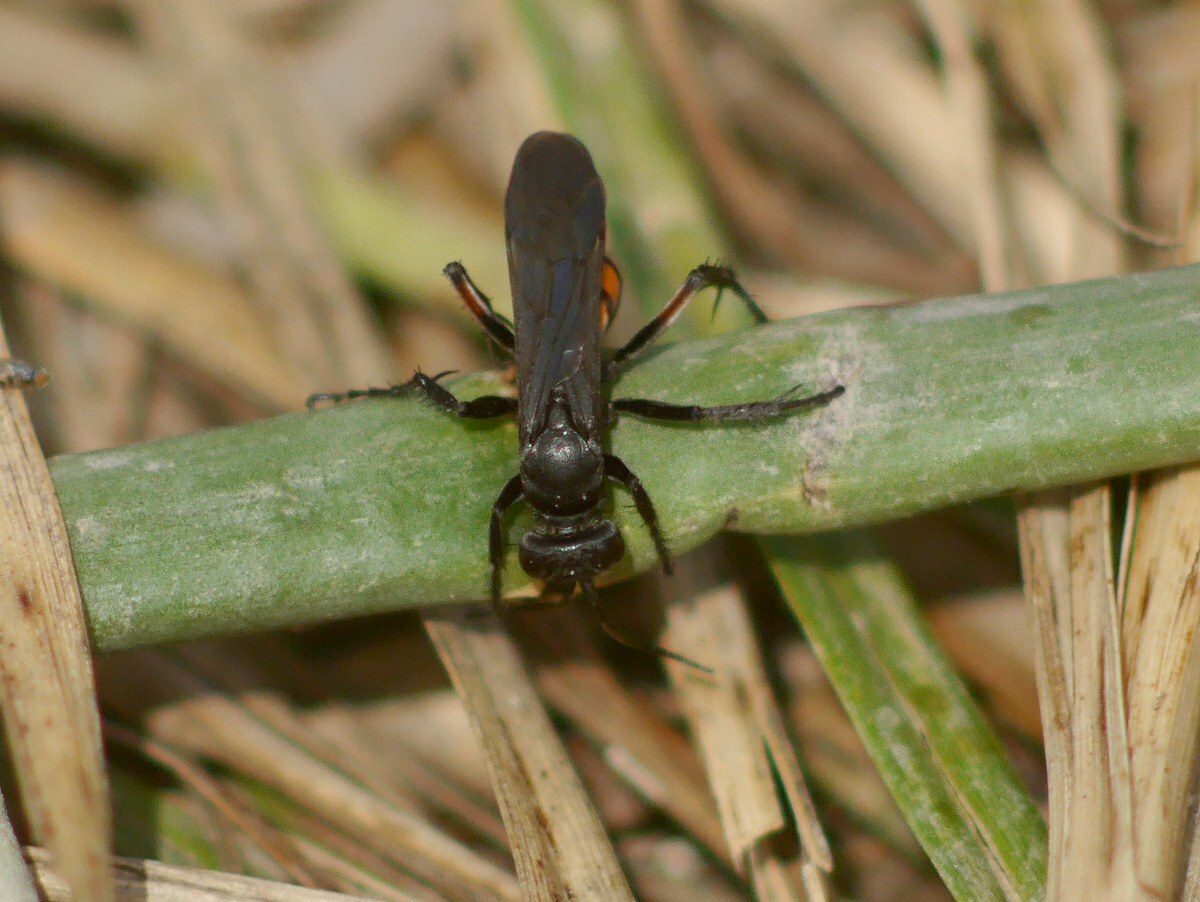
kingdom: Animalia
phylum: Arthropoda
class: Insecta
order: Hymenoptera
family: Pompilidae
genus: Anoplius
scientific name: Anoplius viaticus
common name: Black banded spider wasp
